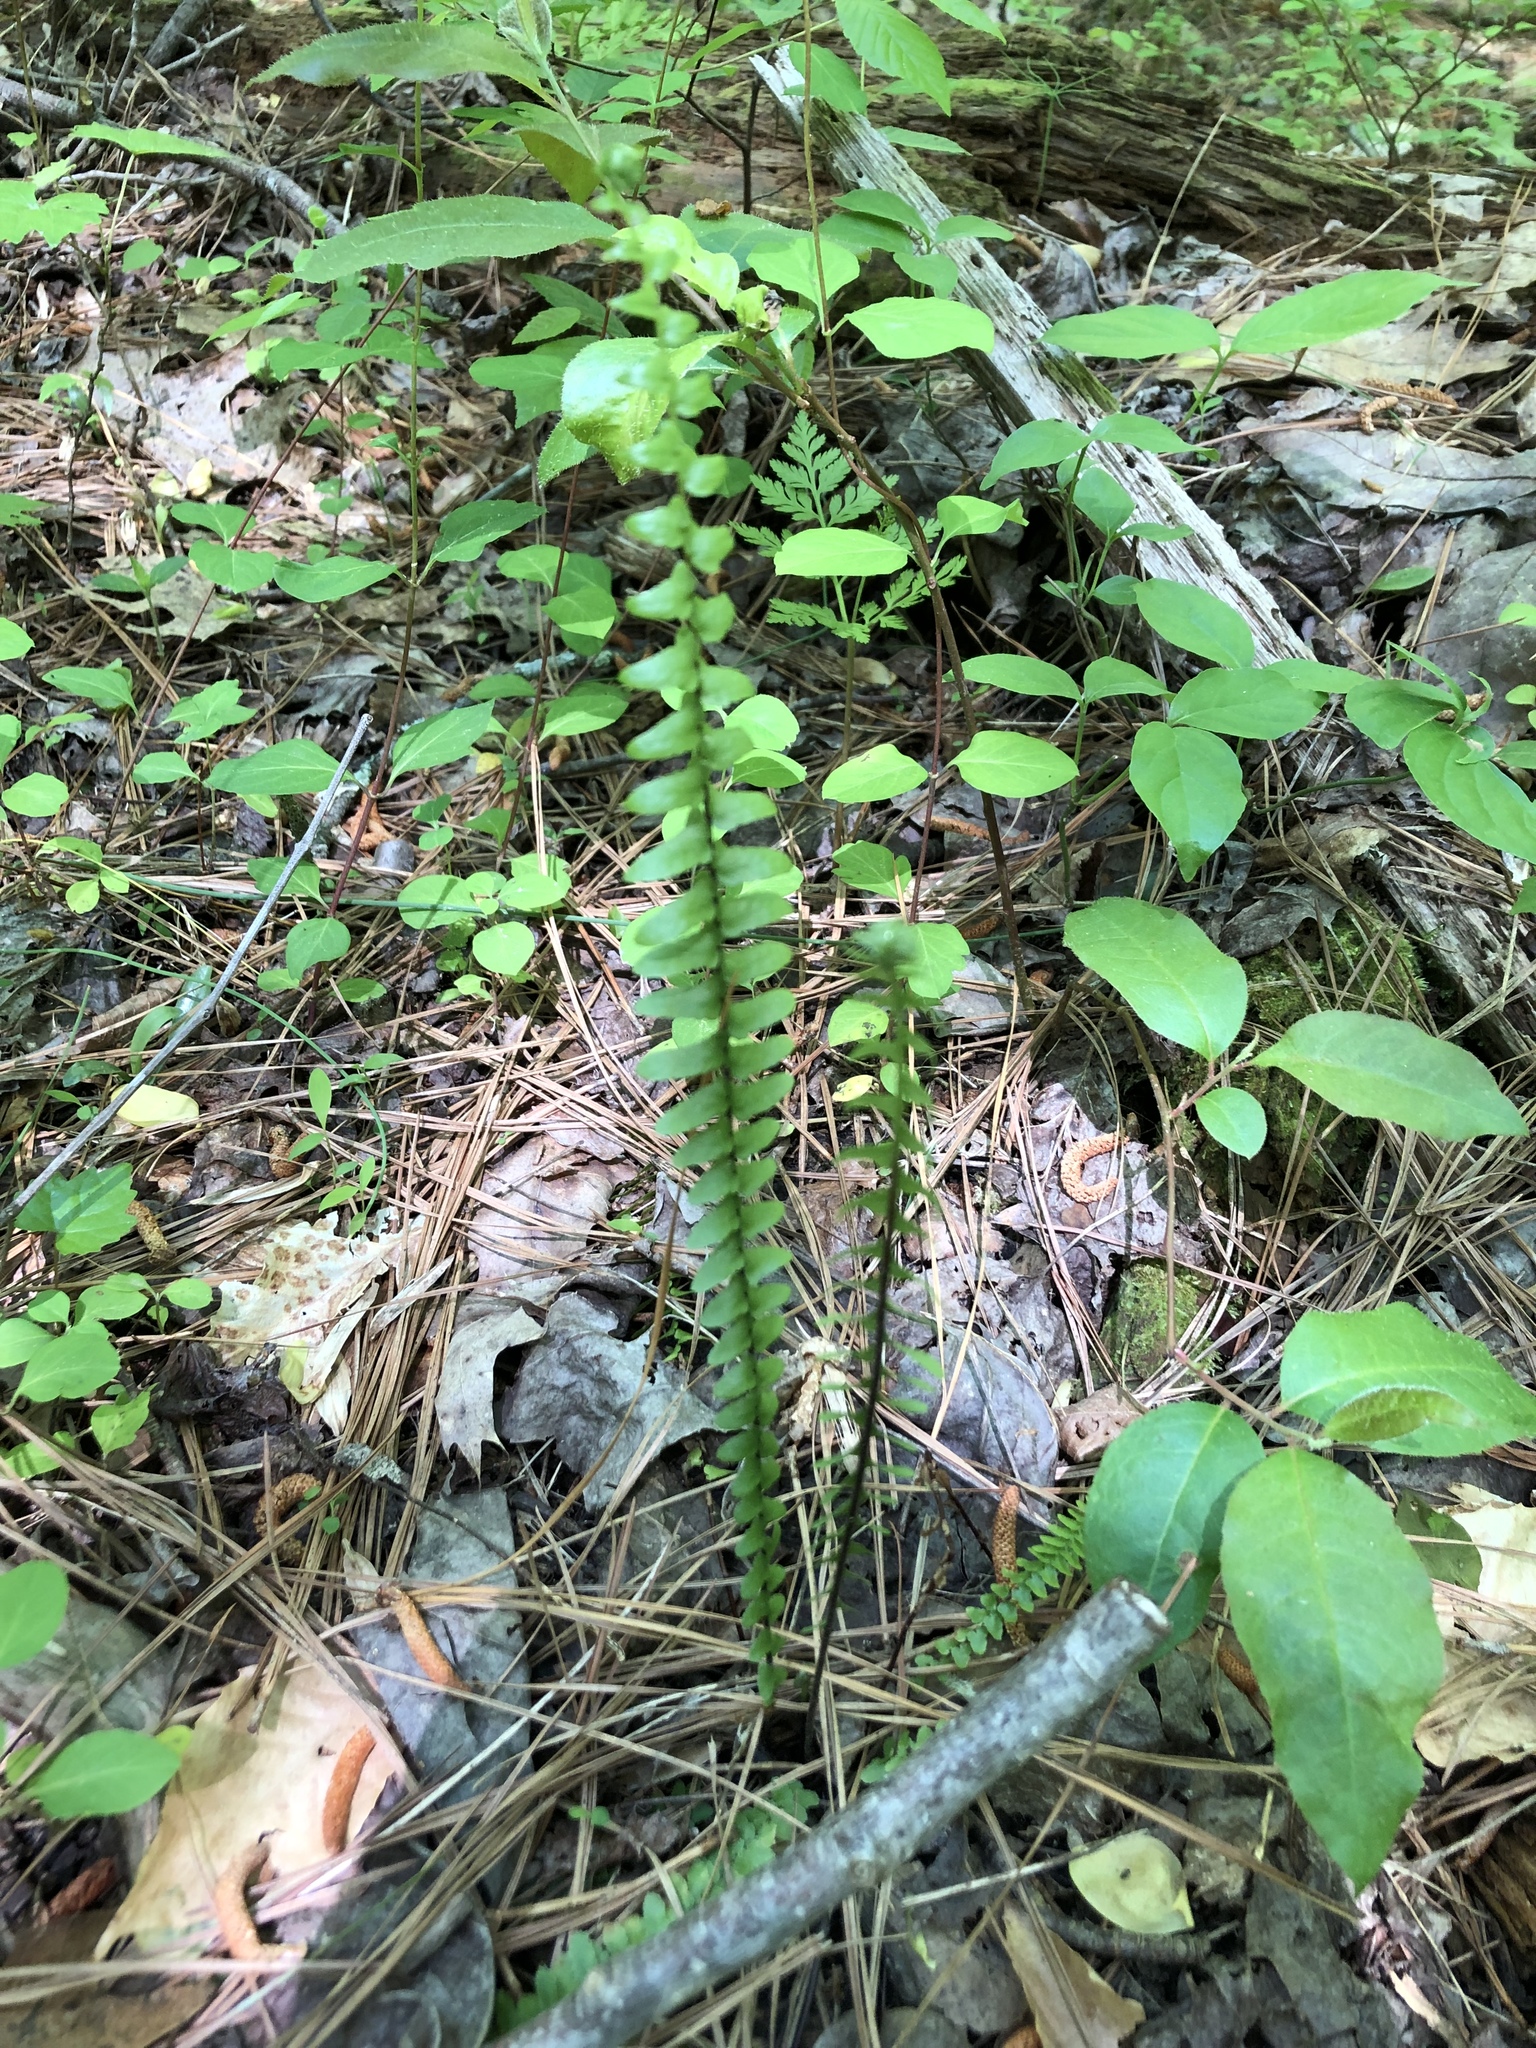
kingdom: Plantae
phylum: Tracheophyta
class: Polypodiopsida
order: Polypodiales
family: Aspleniaceae
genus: Asplenium
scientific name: Asplenium platyneuron
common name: Ebony spleenwort
